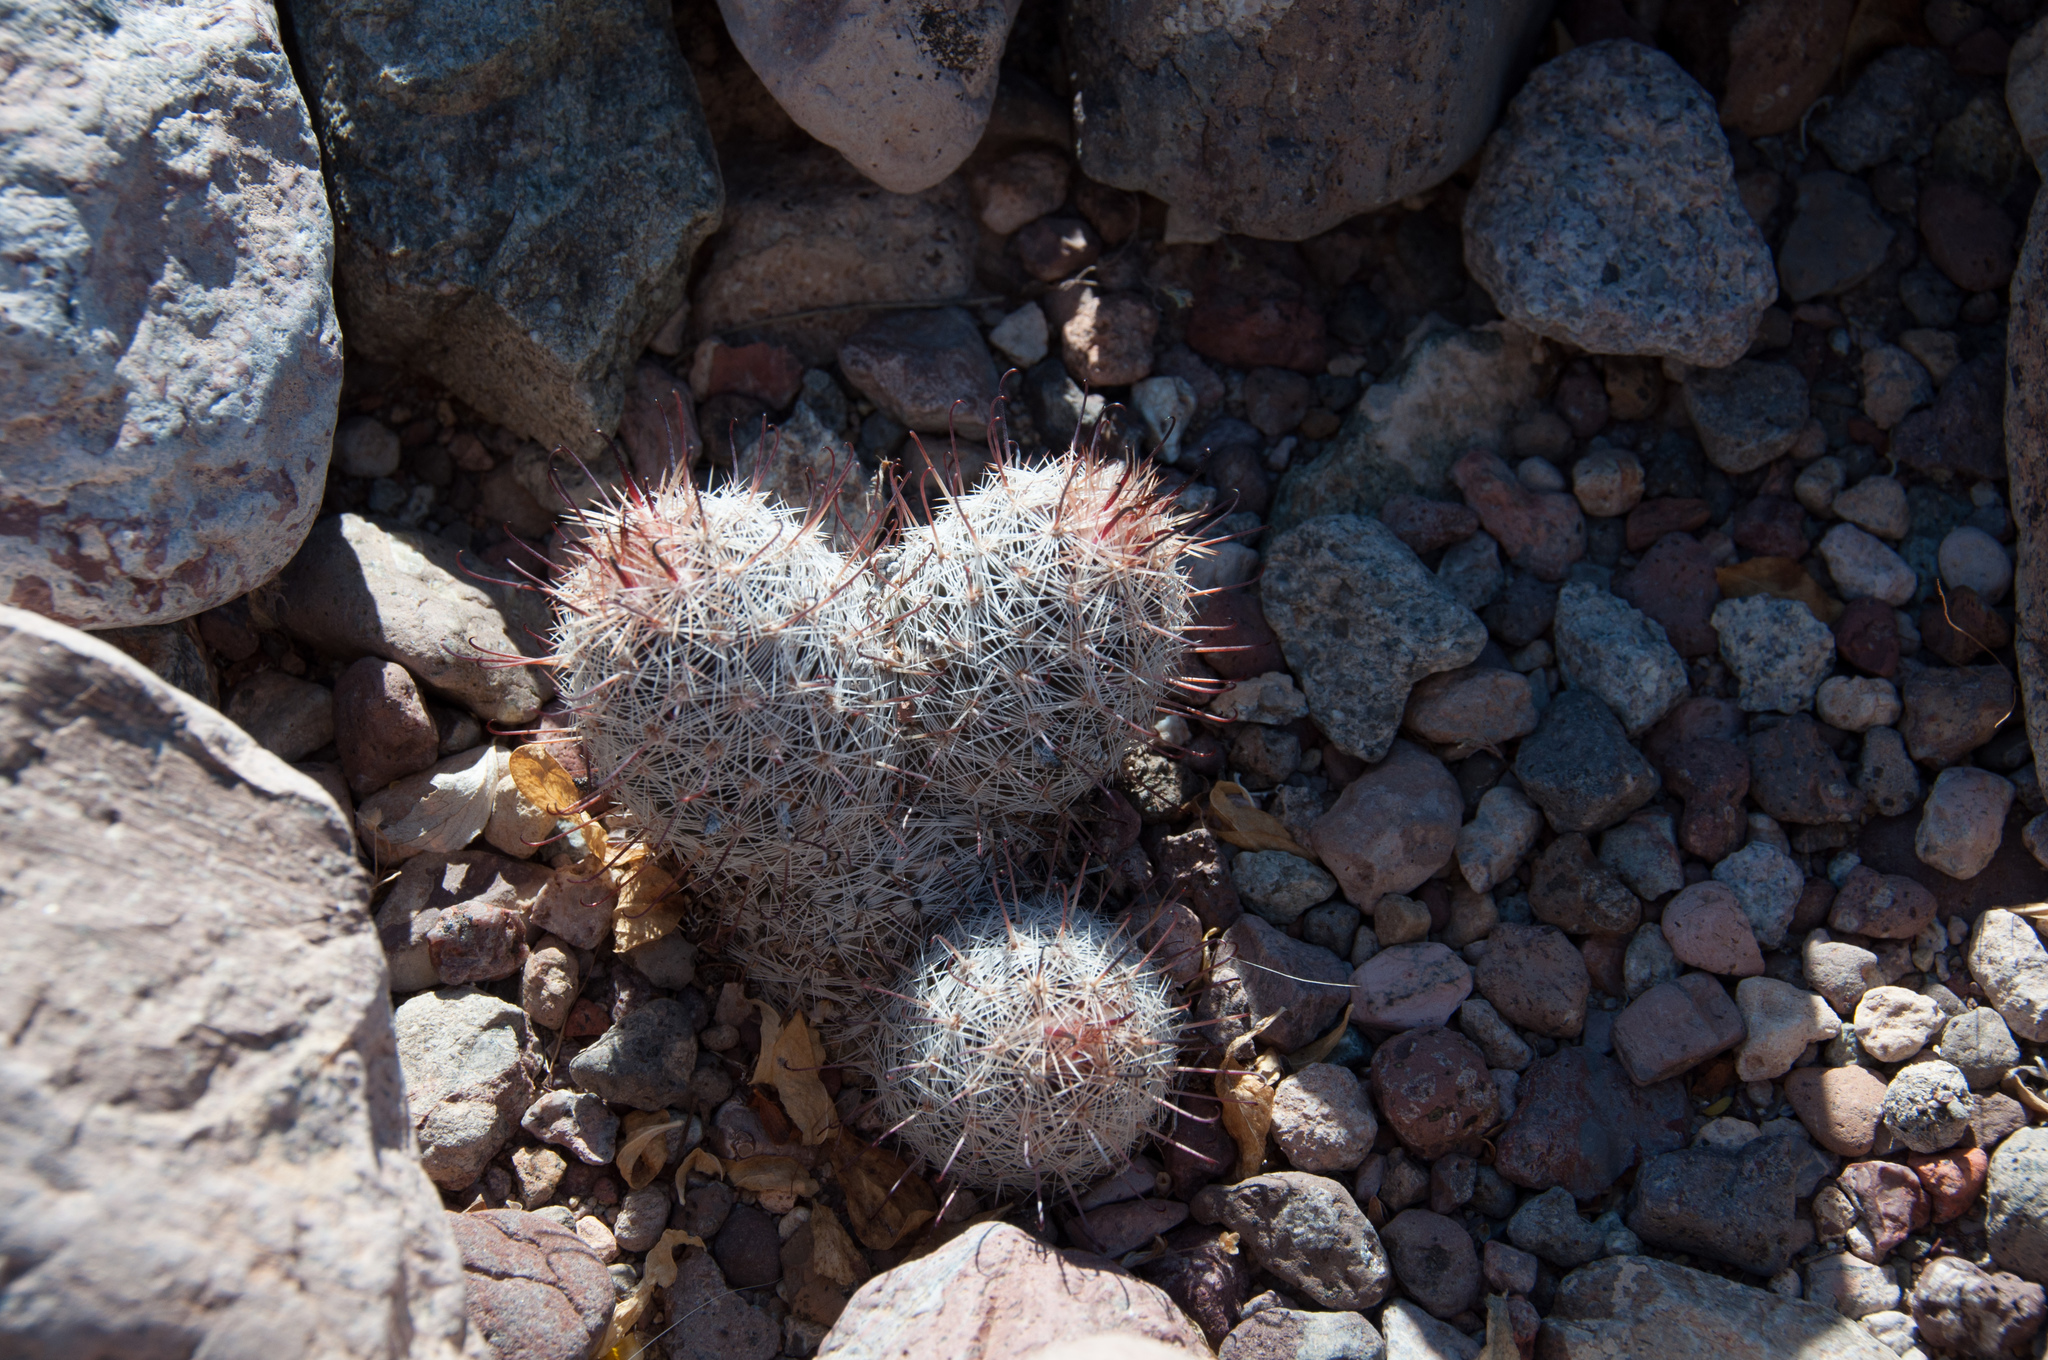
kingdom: Plantae
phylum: Tracheophyta
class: Magnoliopsida
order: Caryophyllales
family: Cactaceae
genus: Cochemiea
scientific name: Cochemiea grahamii
